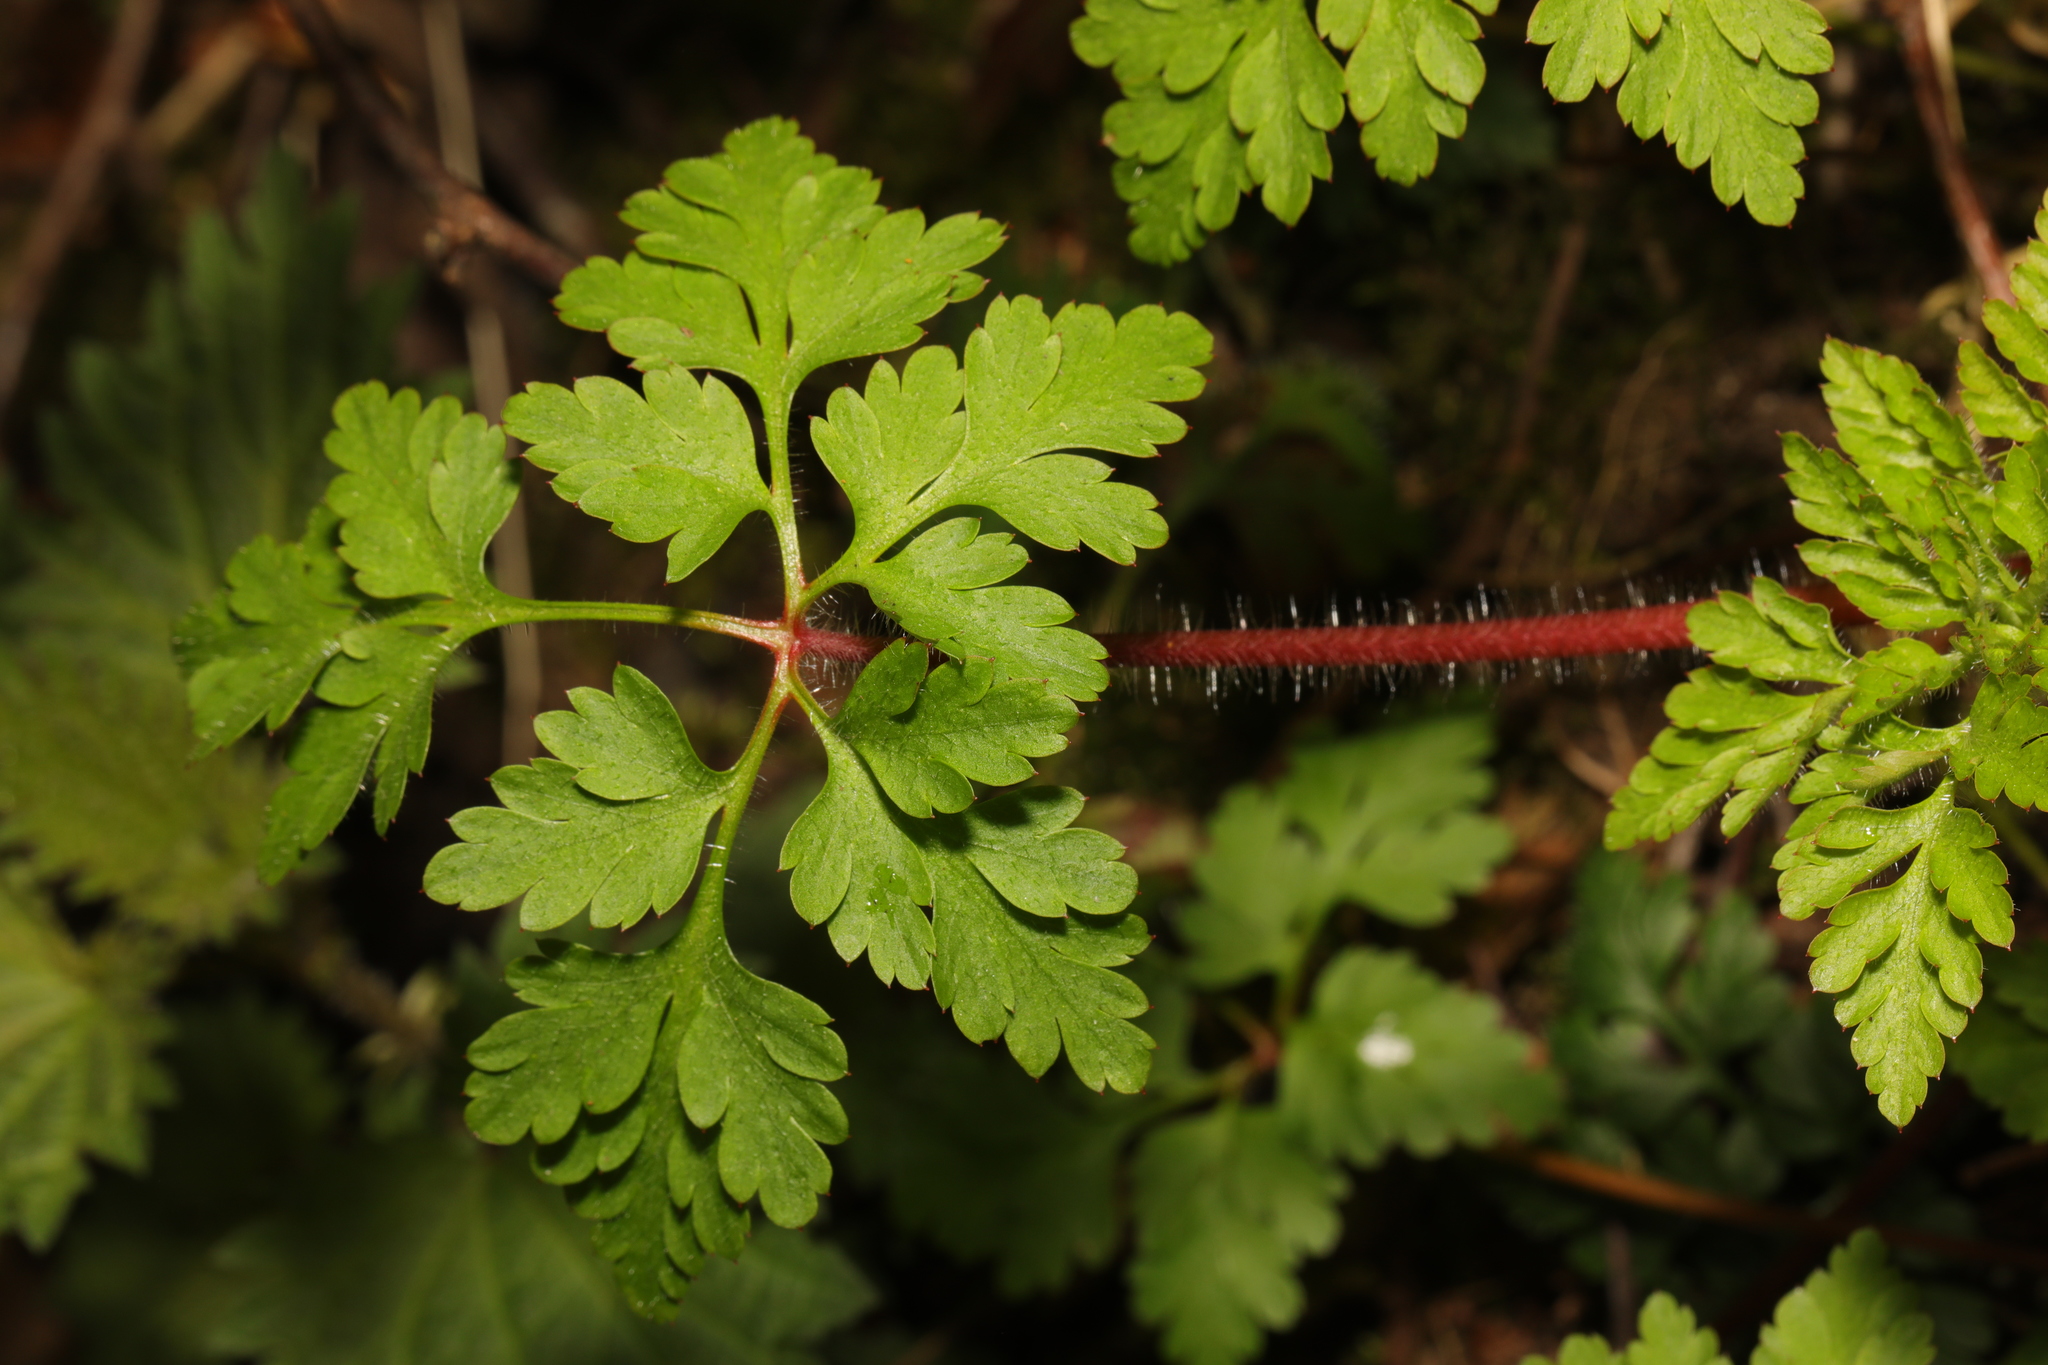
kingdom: Plantae
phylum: Tracheophyta
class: Magnoliopsida
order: Geraniales
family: Geraniaceae
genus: Geranium
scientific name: Geranium robertianum
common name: Herb-robert
